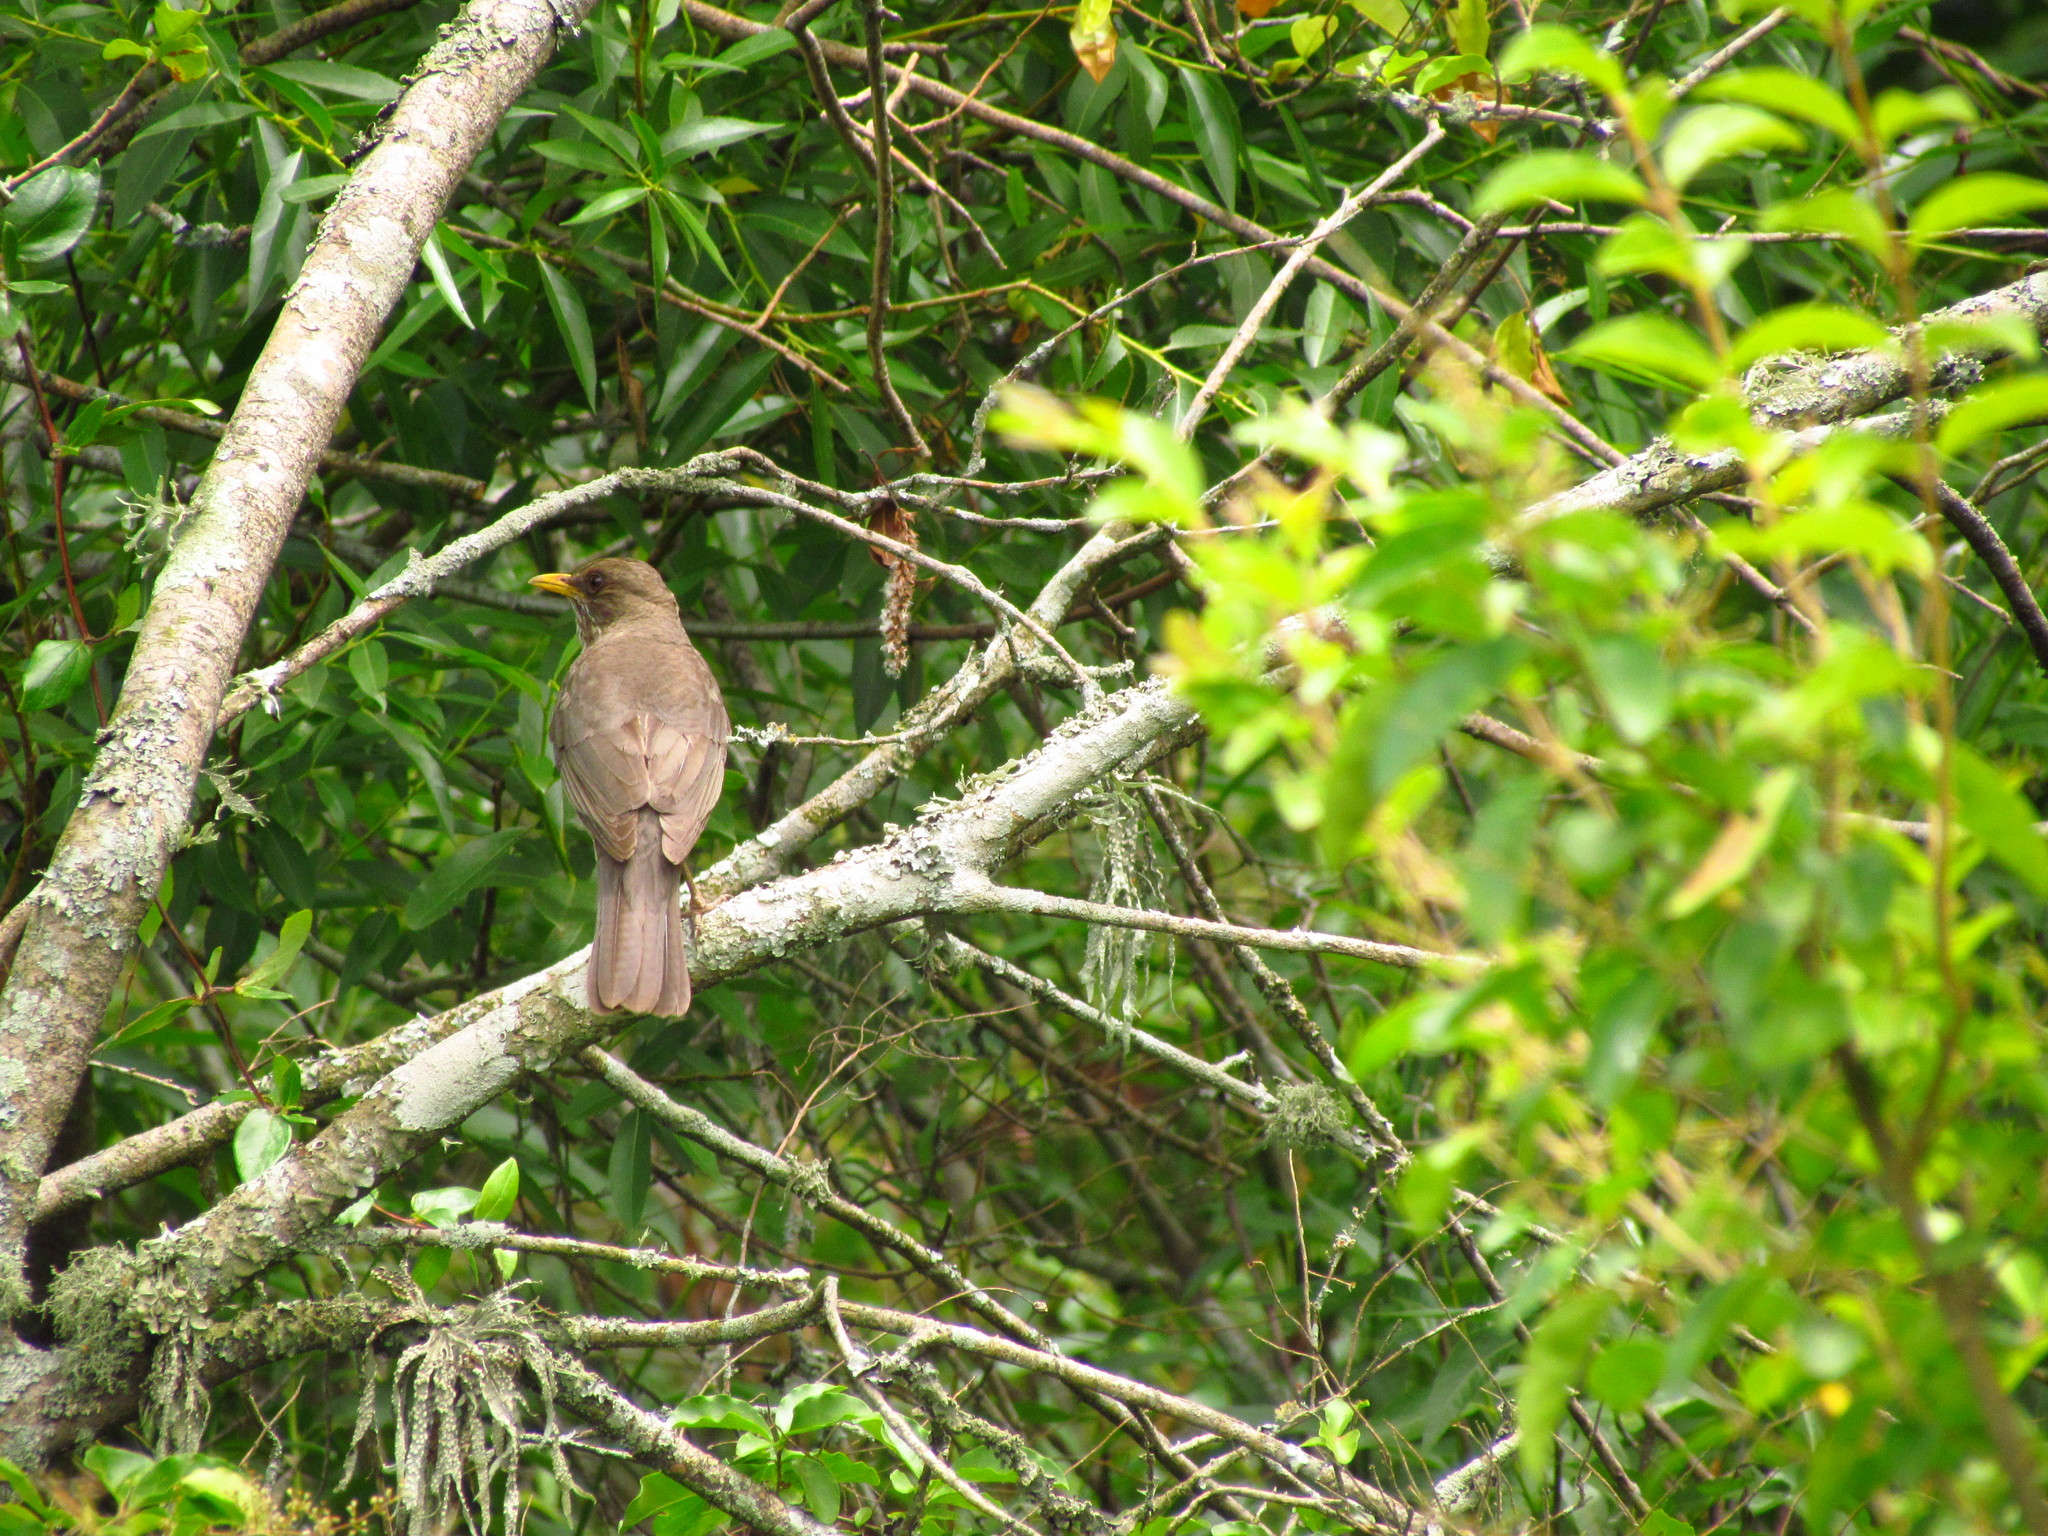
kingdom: Animalia
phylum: Chordata
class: Aves
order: Passeriformes
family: Turdidae
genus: Turdus
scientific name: Turdus amaurochalinus
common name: Creamy-bellied thrush
